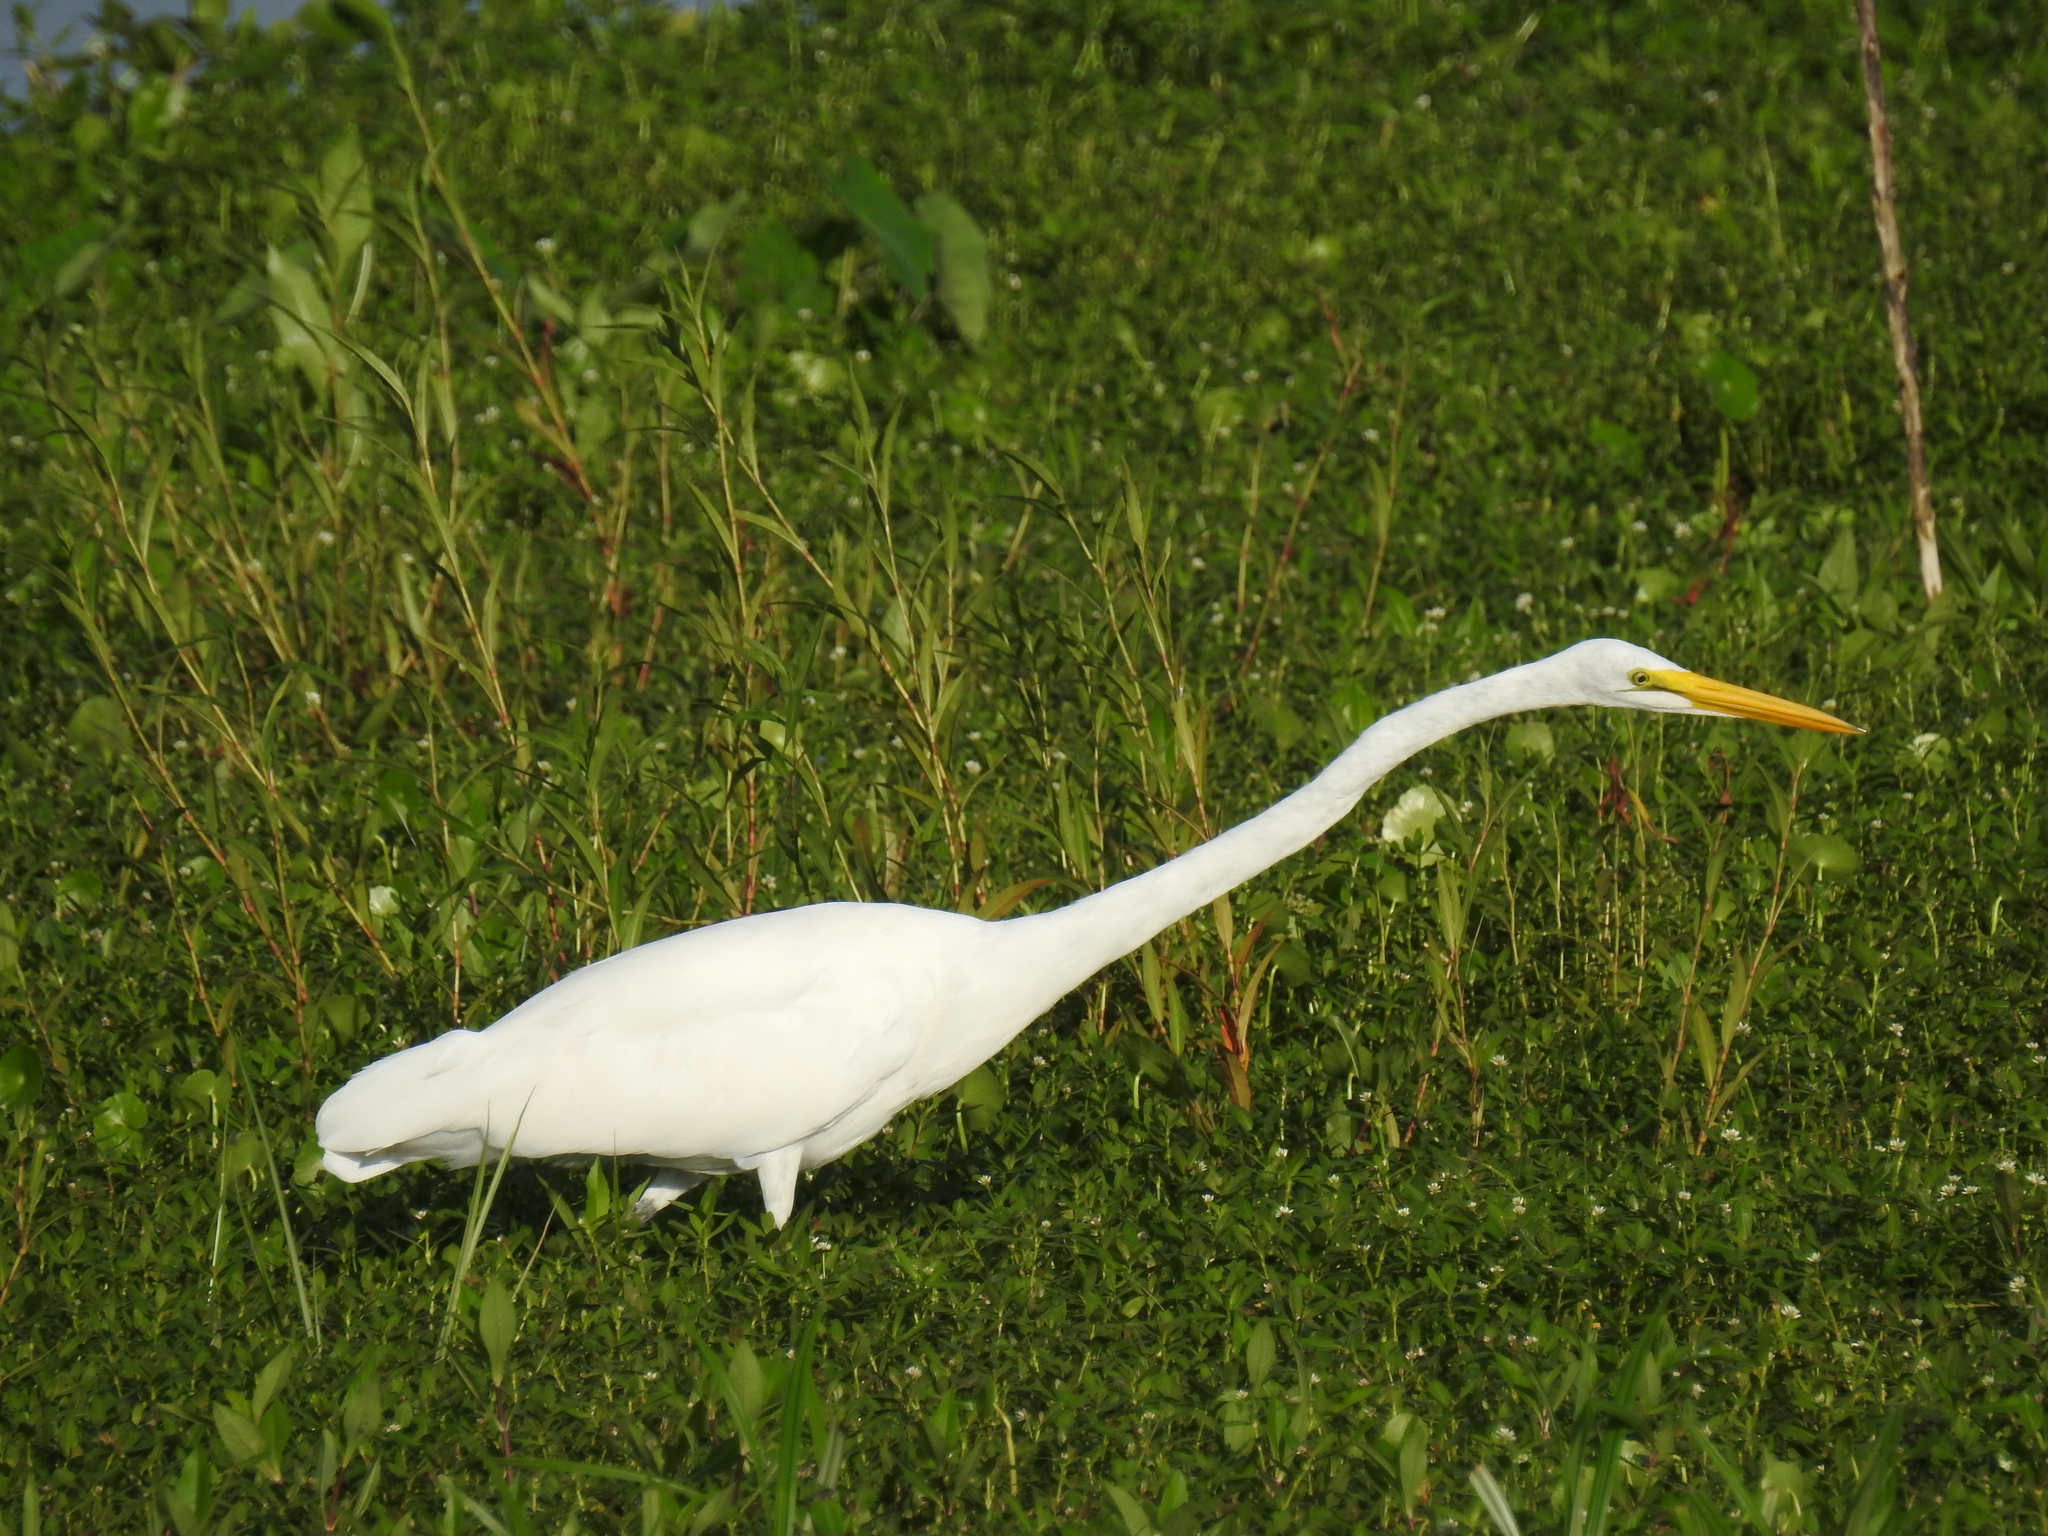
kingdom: Animalia
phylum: Chordata
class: Aves
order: Pelecaniformes
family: Ardeidae
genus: Ardea
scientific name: Ardea alba
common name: Great egret
